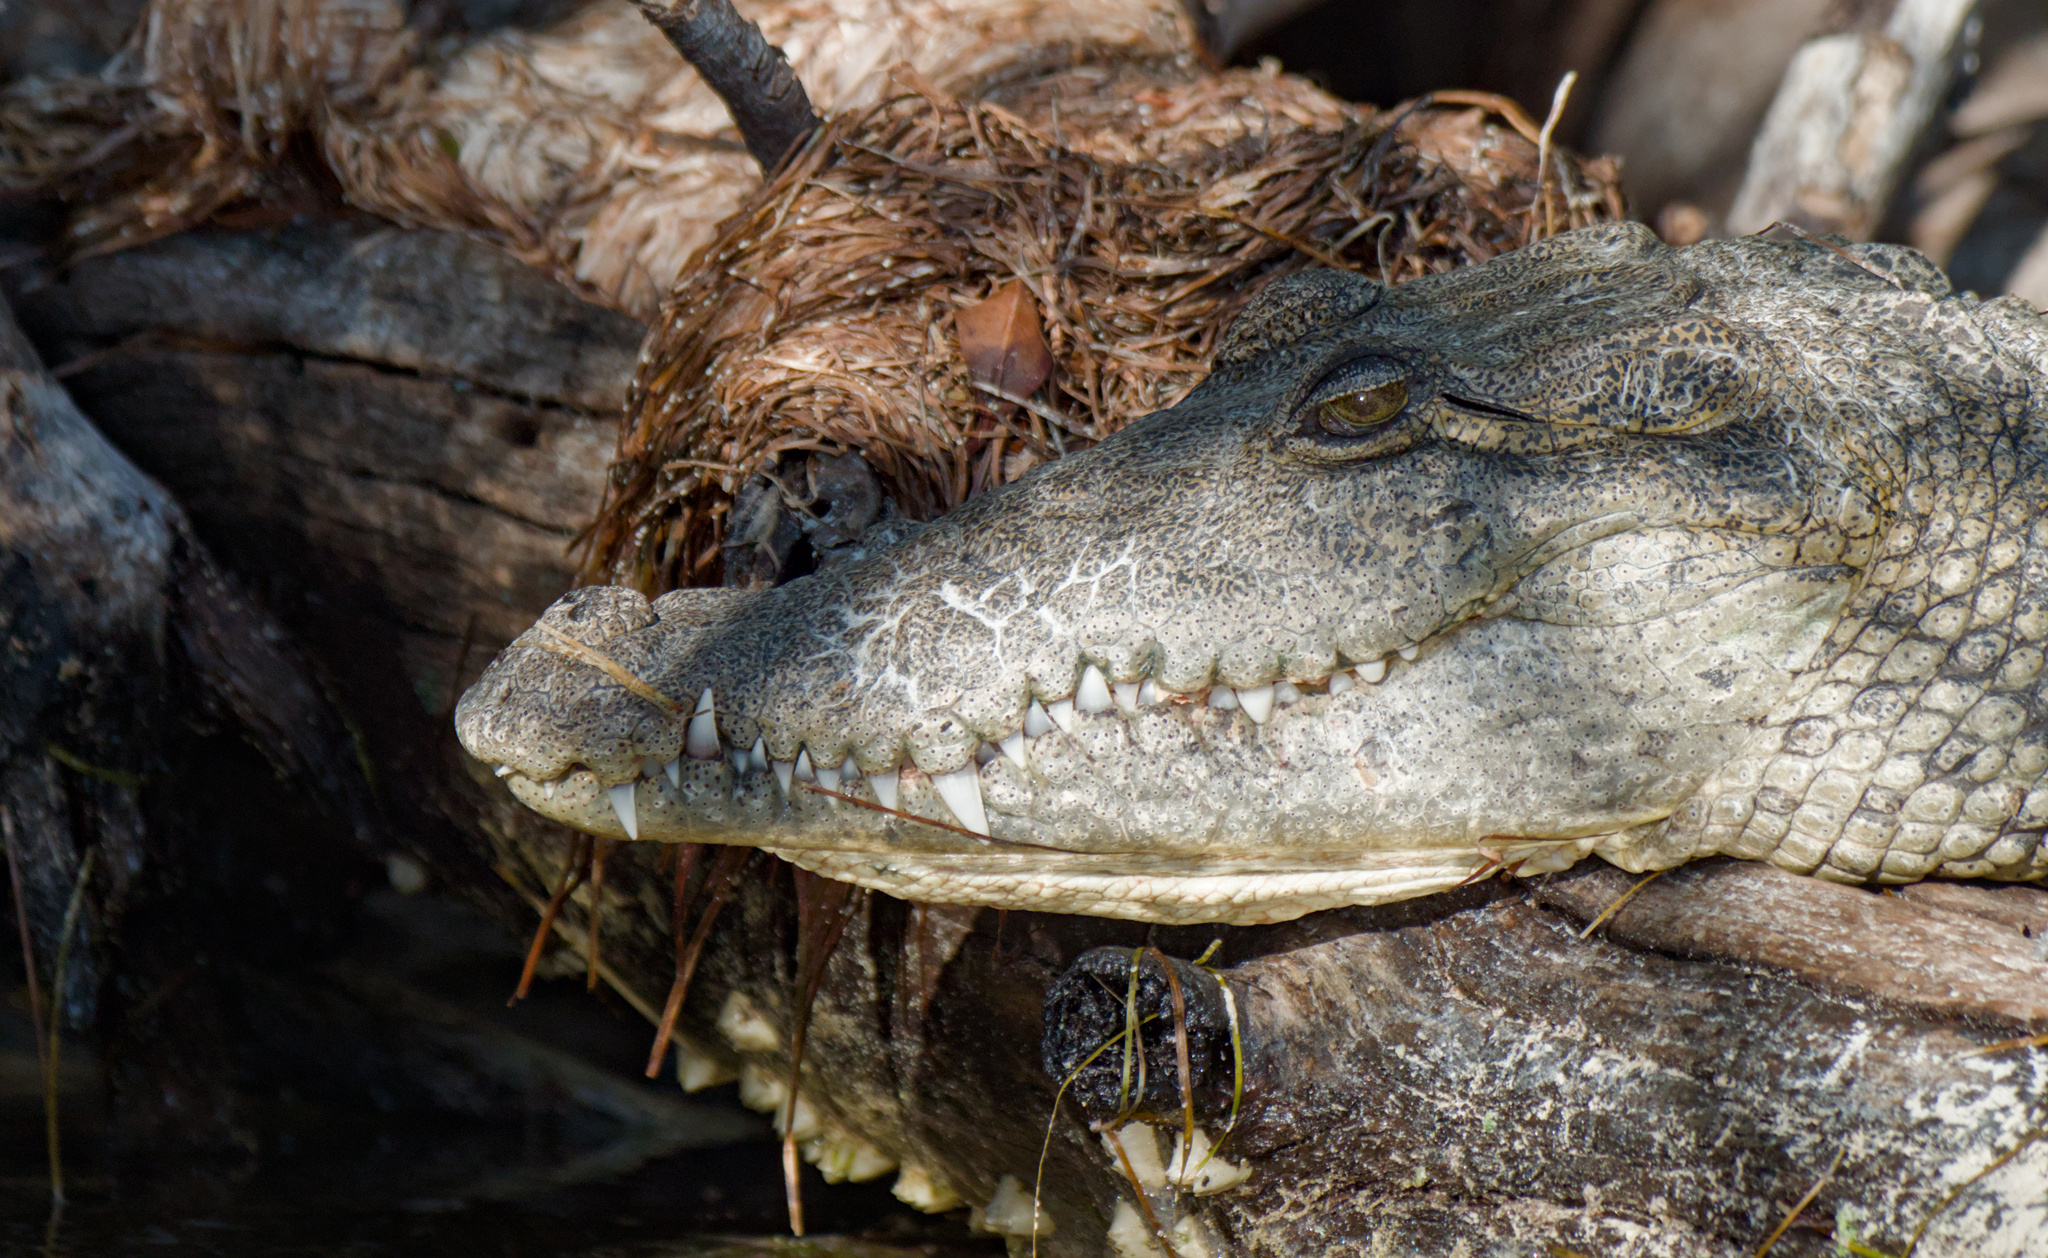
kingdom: Animalia
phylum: Chordata
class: Crocodylia
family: Crocodylidae
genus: Crocodylus
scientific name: Crocodylus moreletii
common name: Morelet's crocodile
